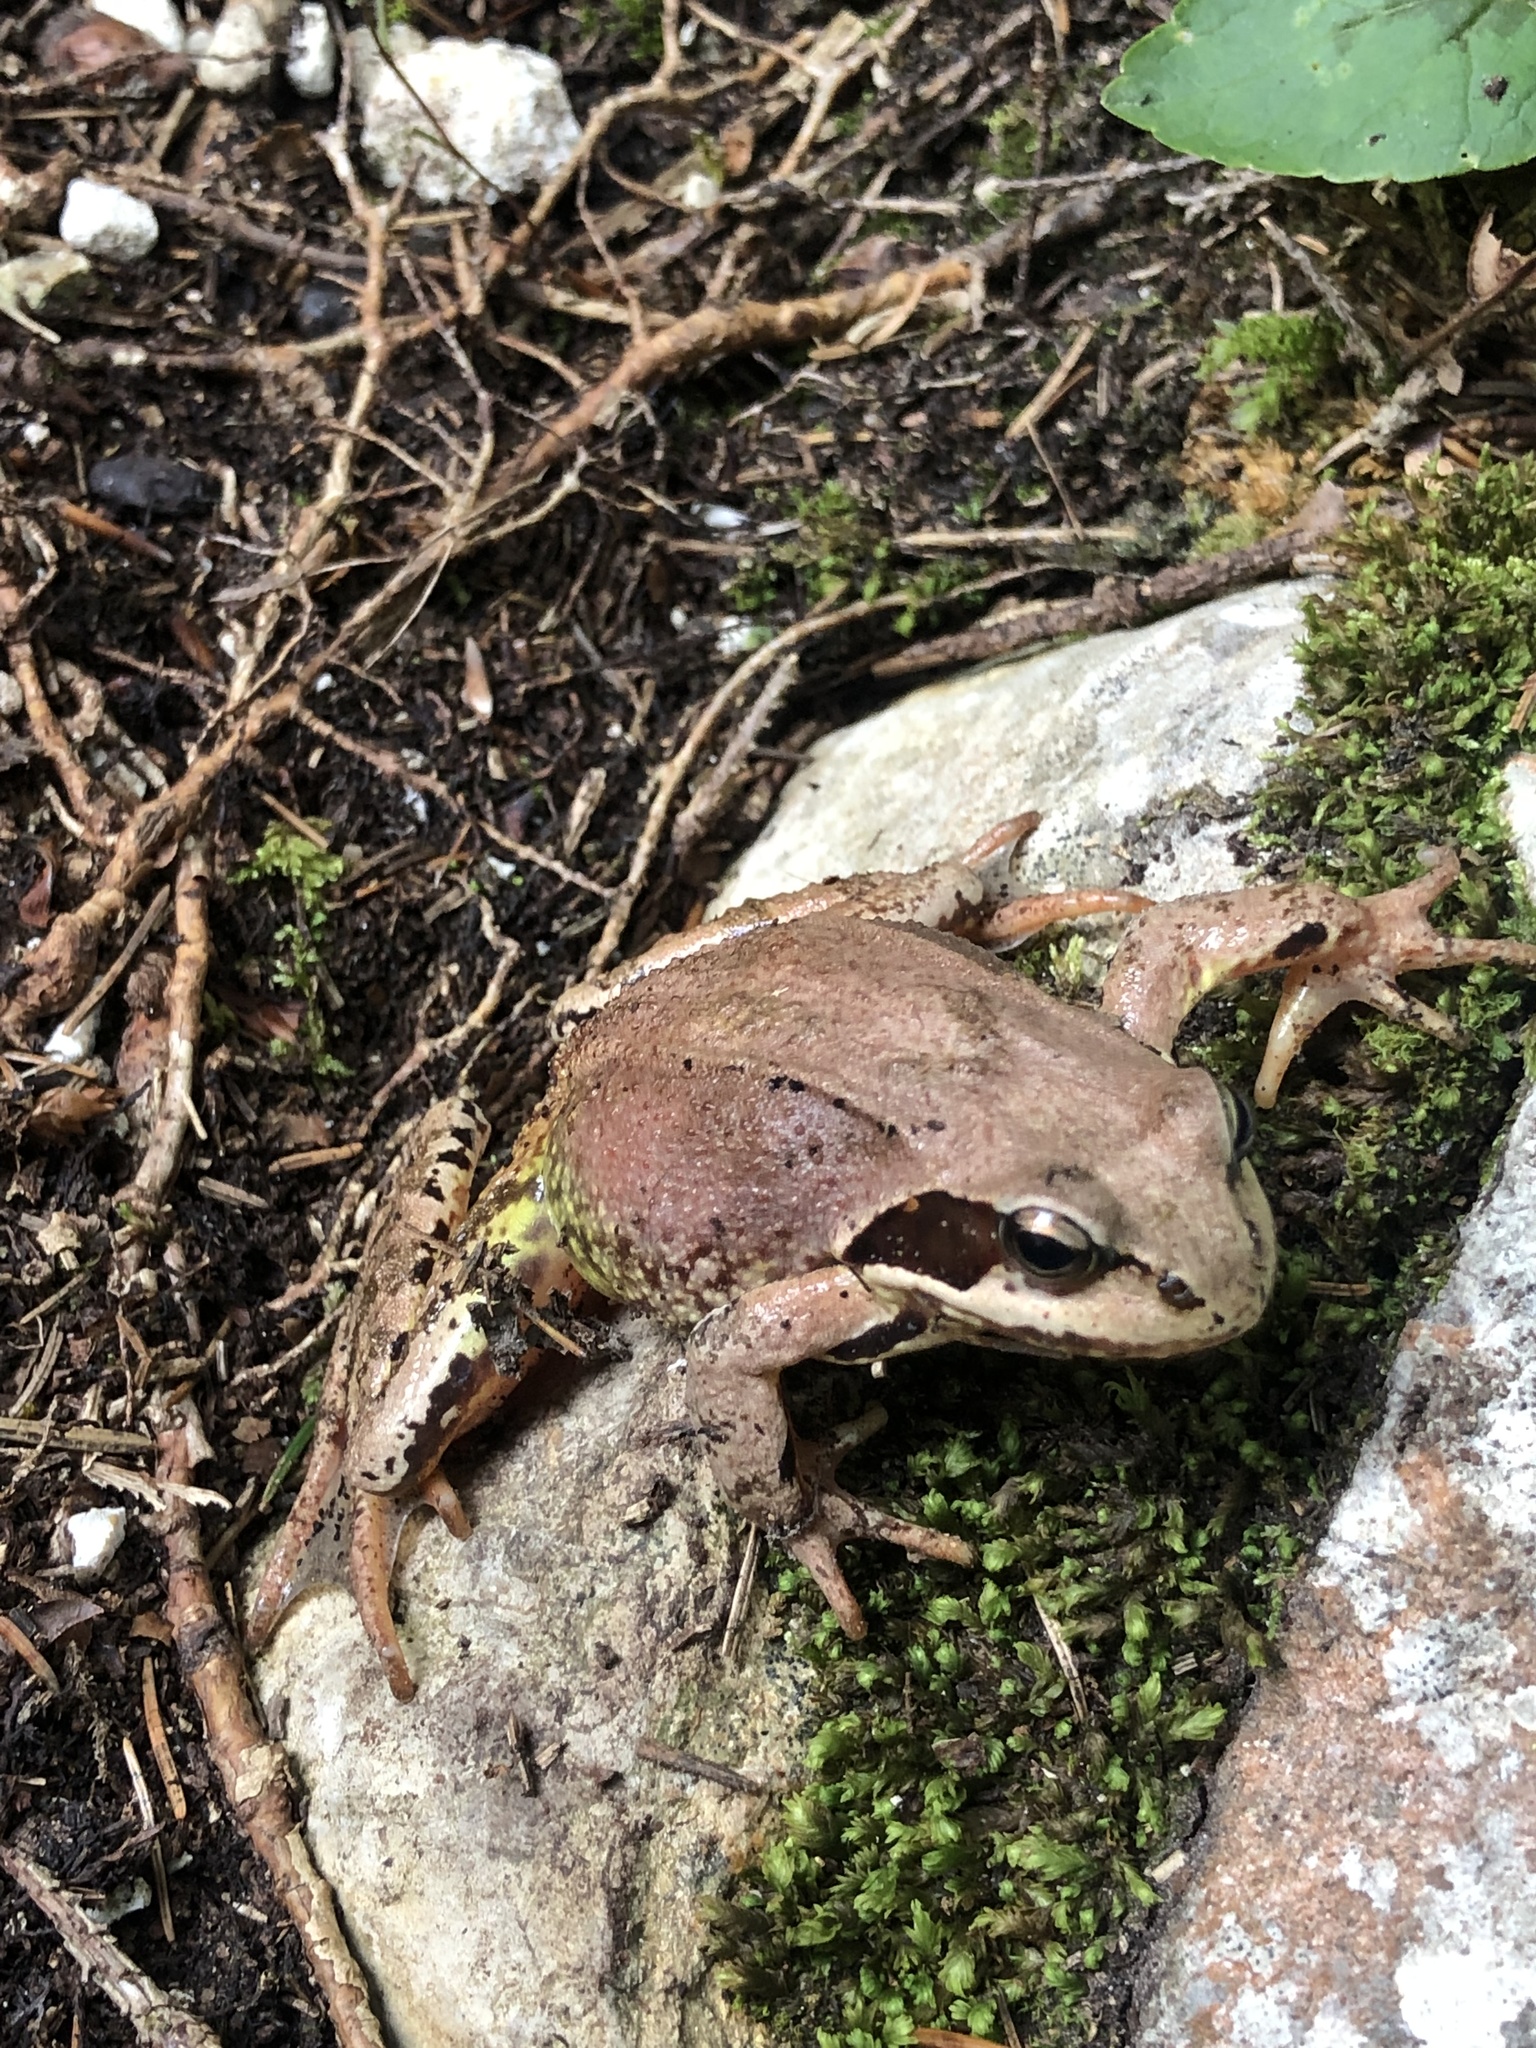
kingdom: Animalia
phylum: Chordata
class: Amphibia
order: Anura
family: Ranidae
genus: Rana
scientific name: Rana temporaria
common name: Common frog
